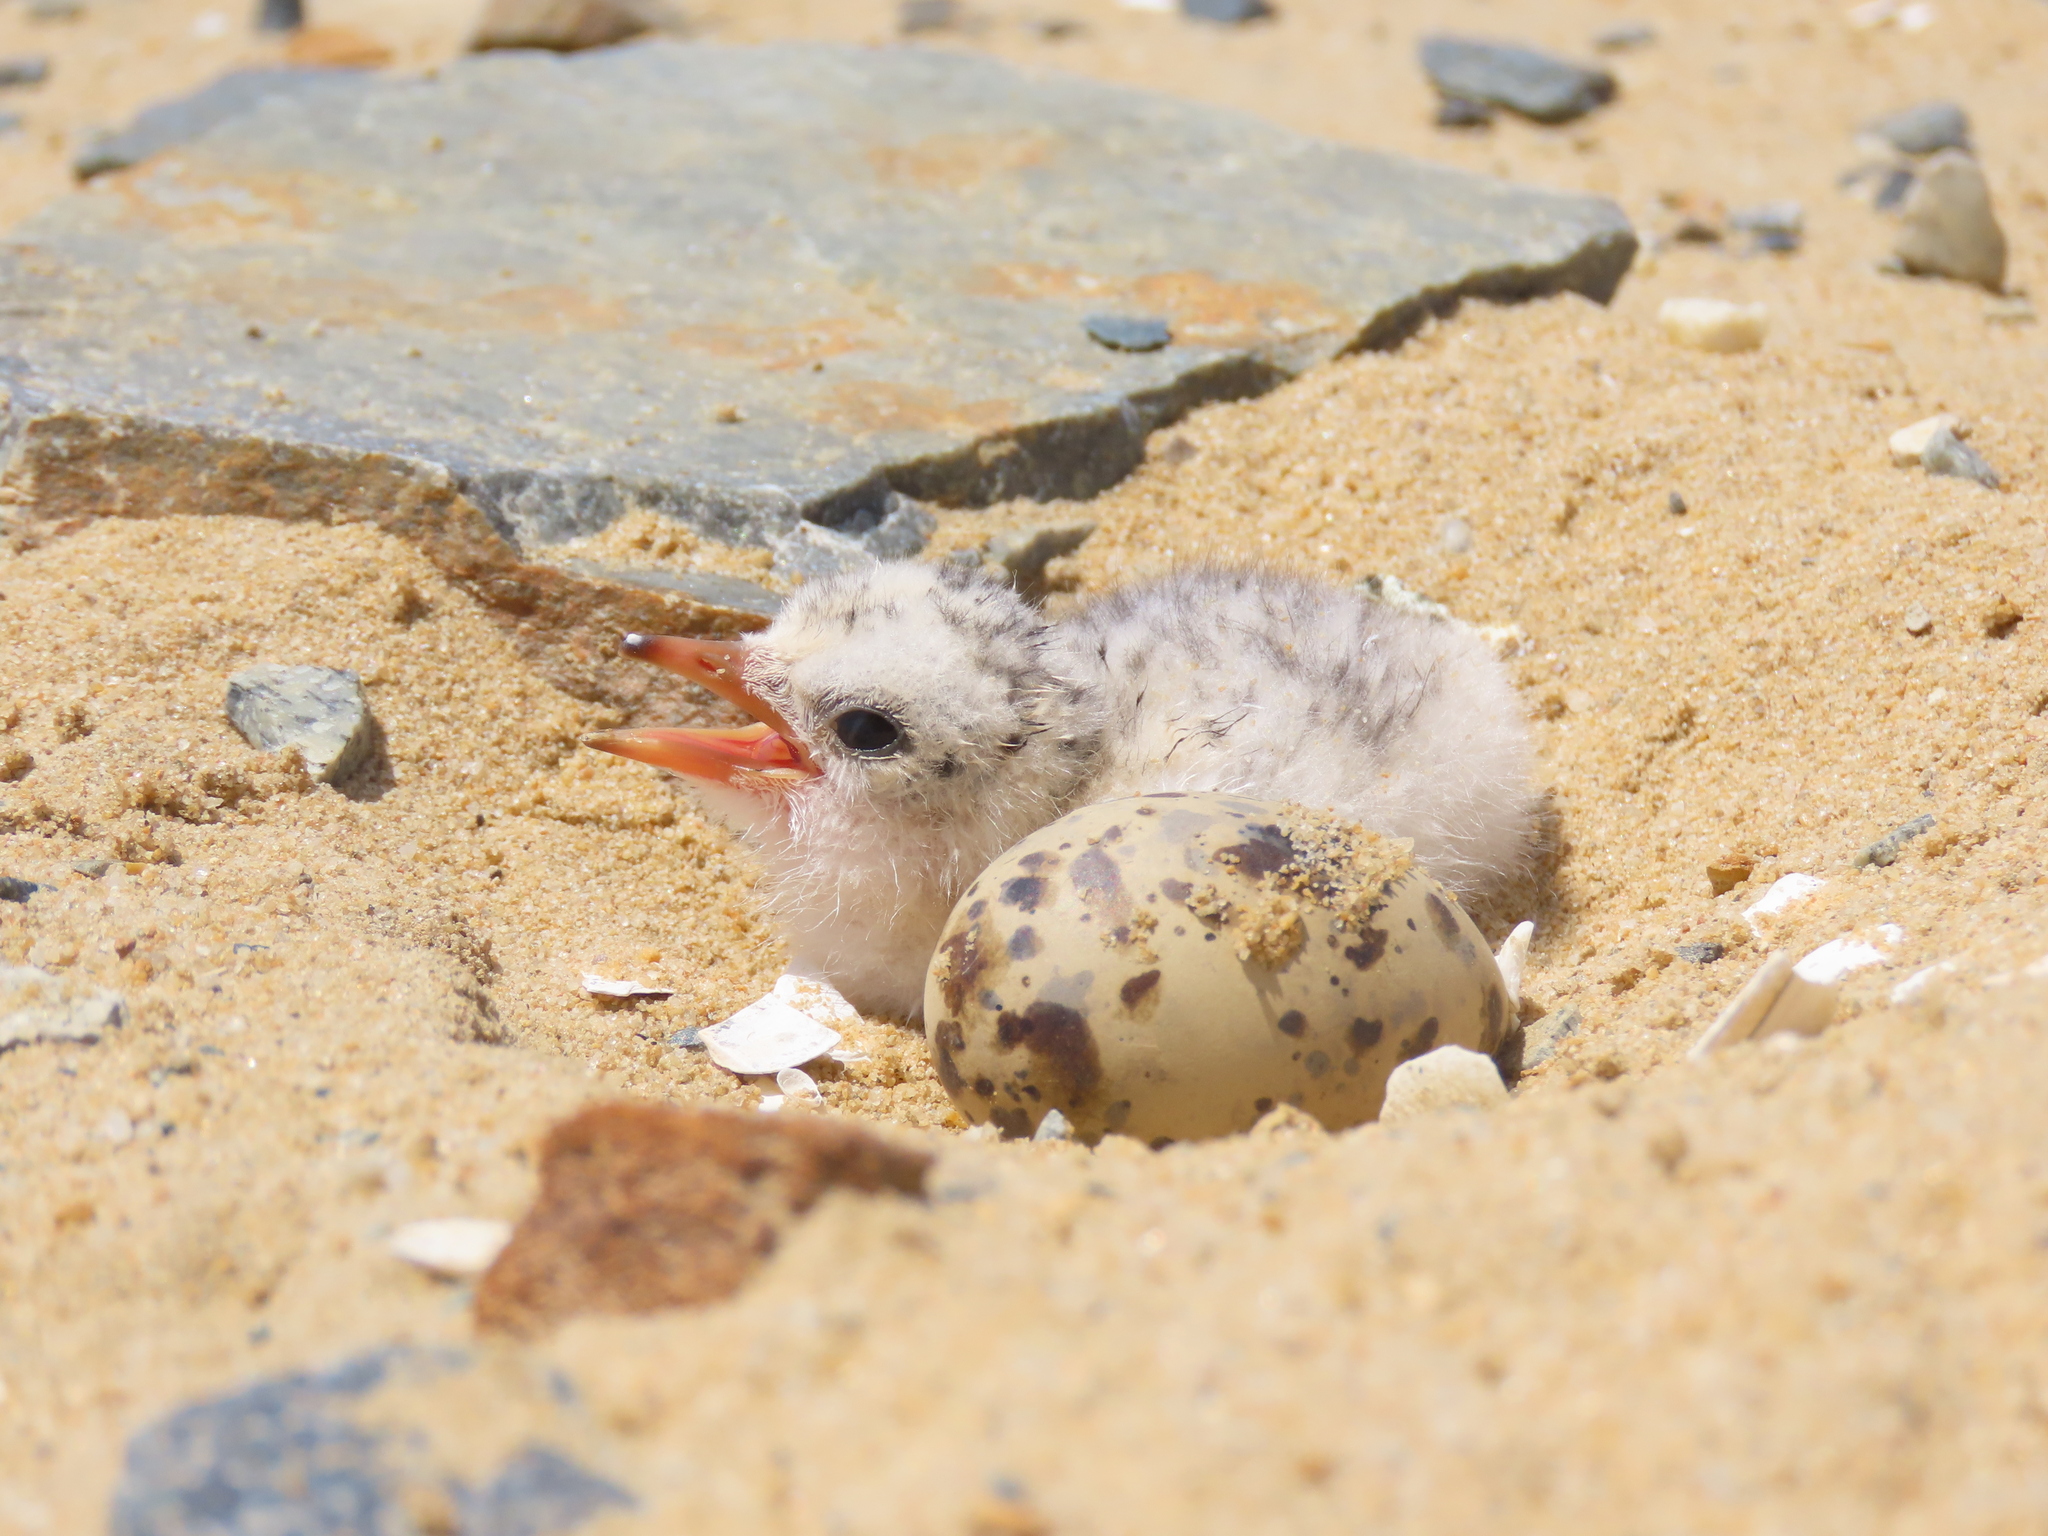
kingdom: Animalia
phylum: Chordata
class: Aves
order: Charadriiformes
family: Laridae
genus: Sternula
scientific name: Sternula antillarum
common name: Least tern
